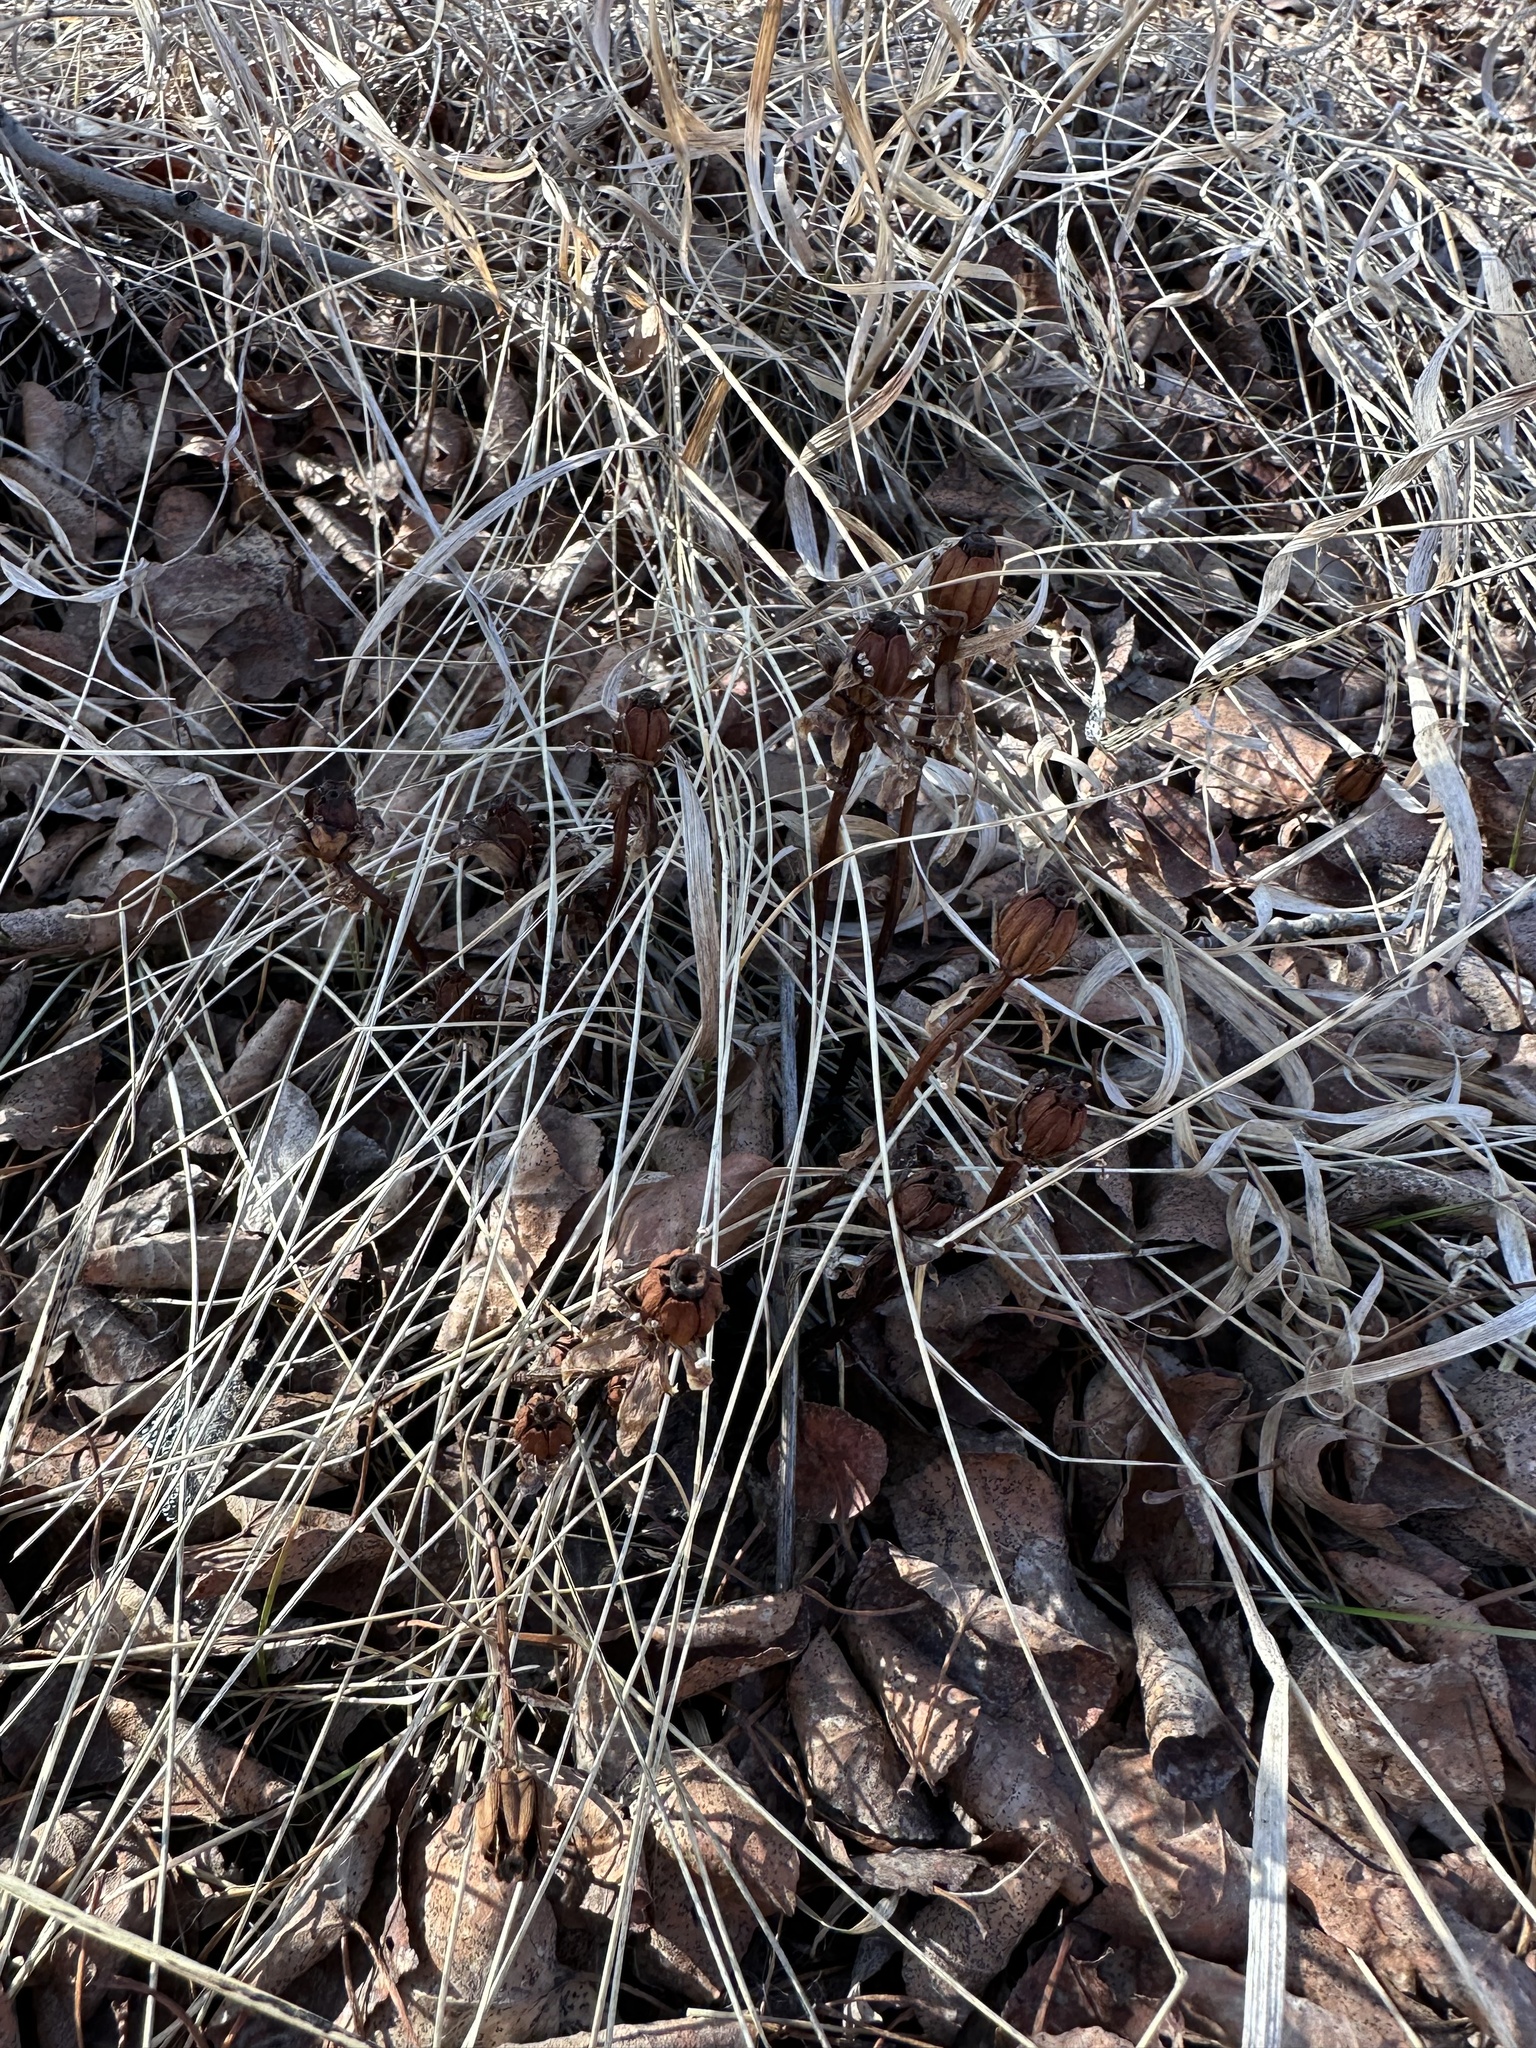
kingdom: Plantae
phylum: Tracheophyta
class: Magnoliopsida
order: Ericales
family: Ericaceae
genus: Monotropa
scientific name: Monotropa uniflora
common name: Convulsion root
